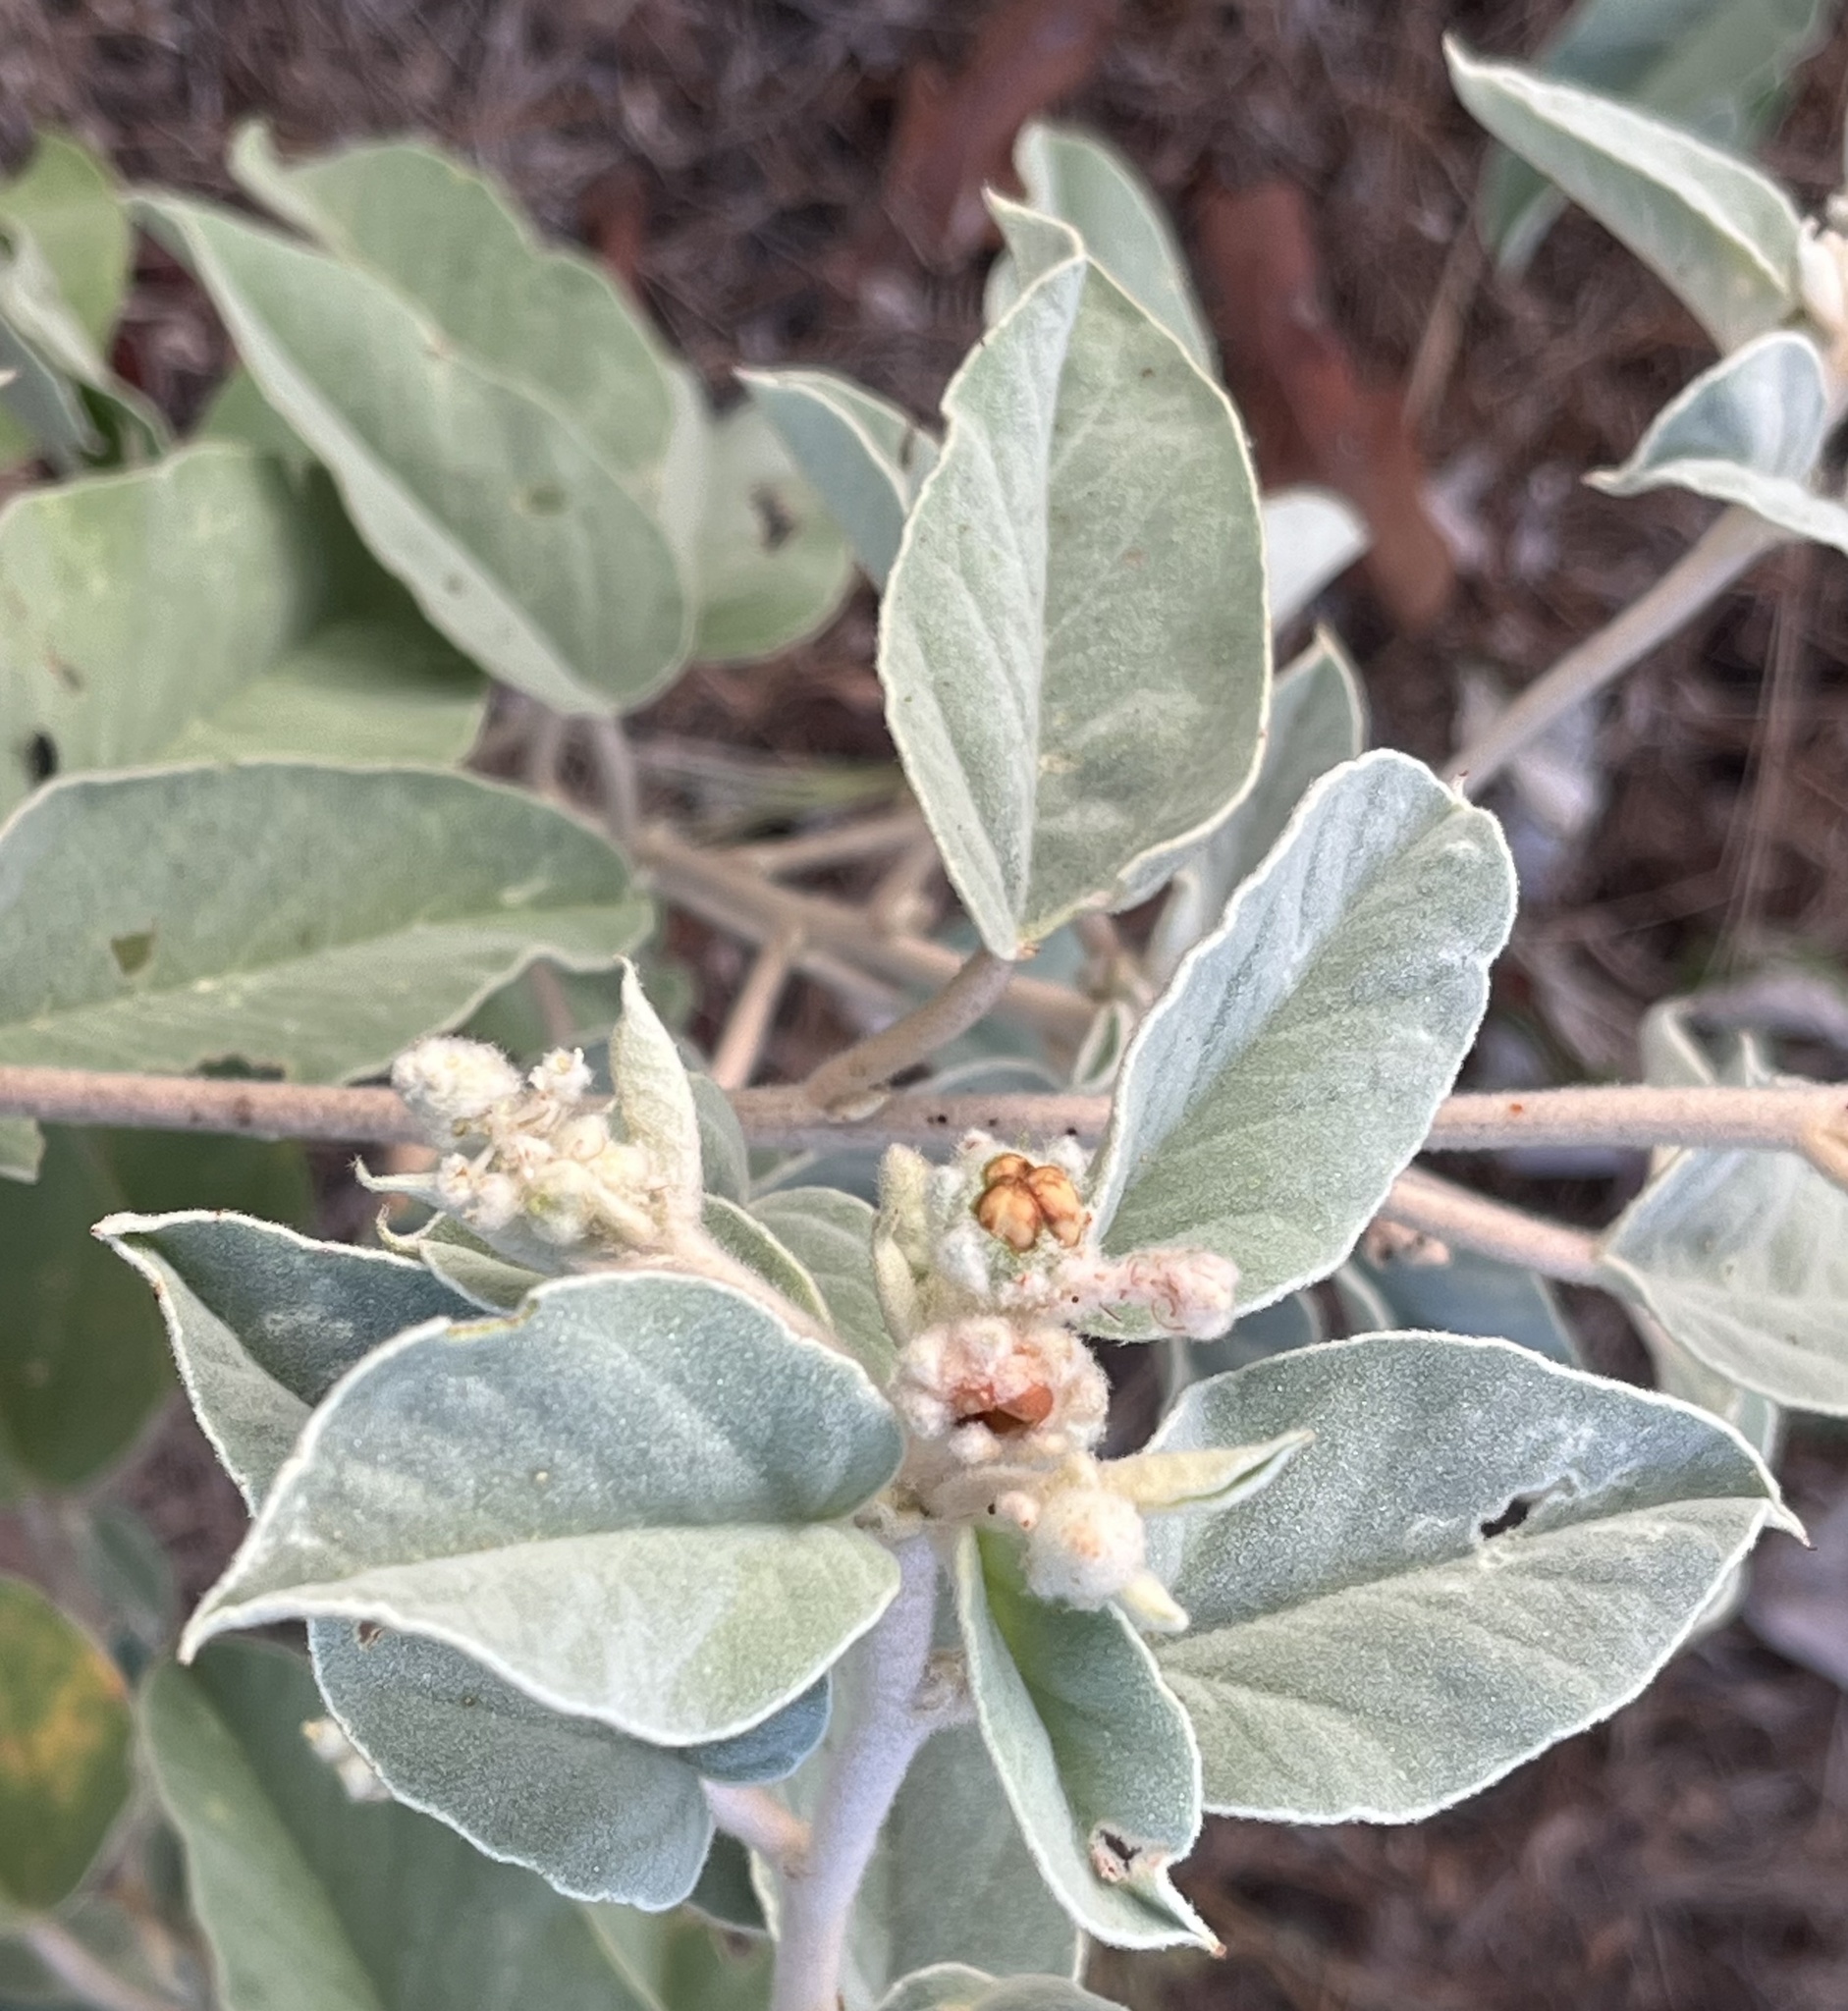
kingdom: Plantae
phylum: Tracheophyta
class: Magnoliopsida
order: Malpighiales
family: Euphorbiaceae
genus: Croton
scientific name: Croton lindheimeri
